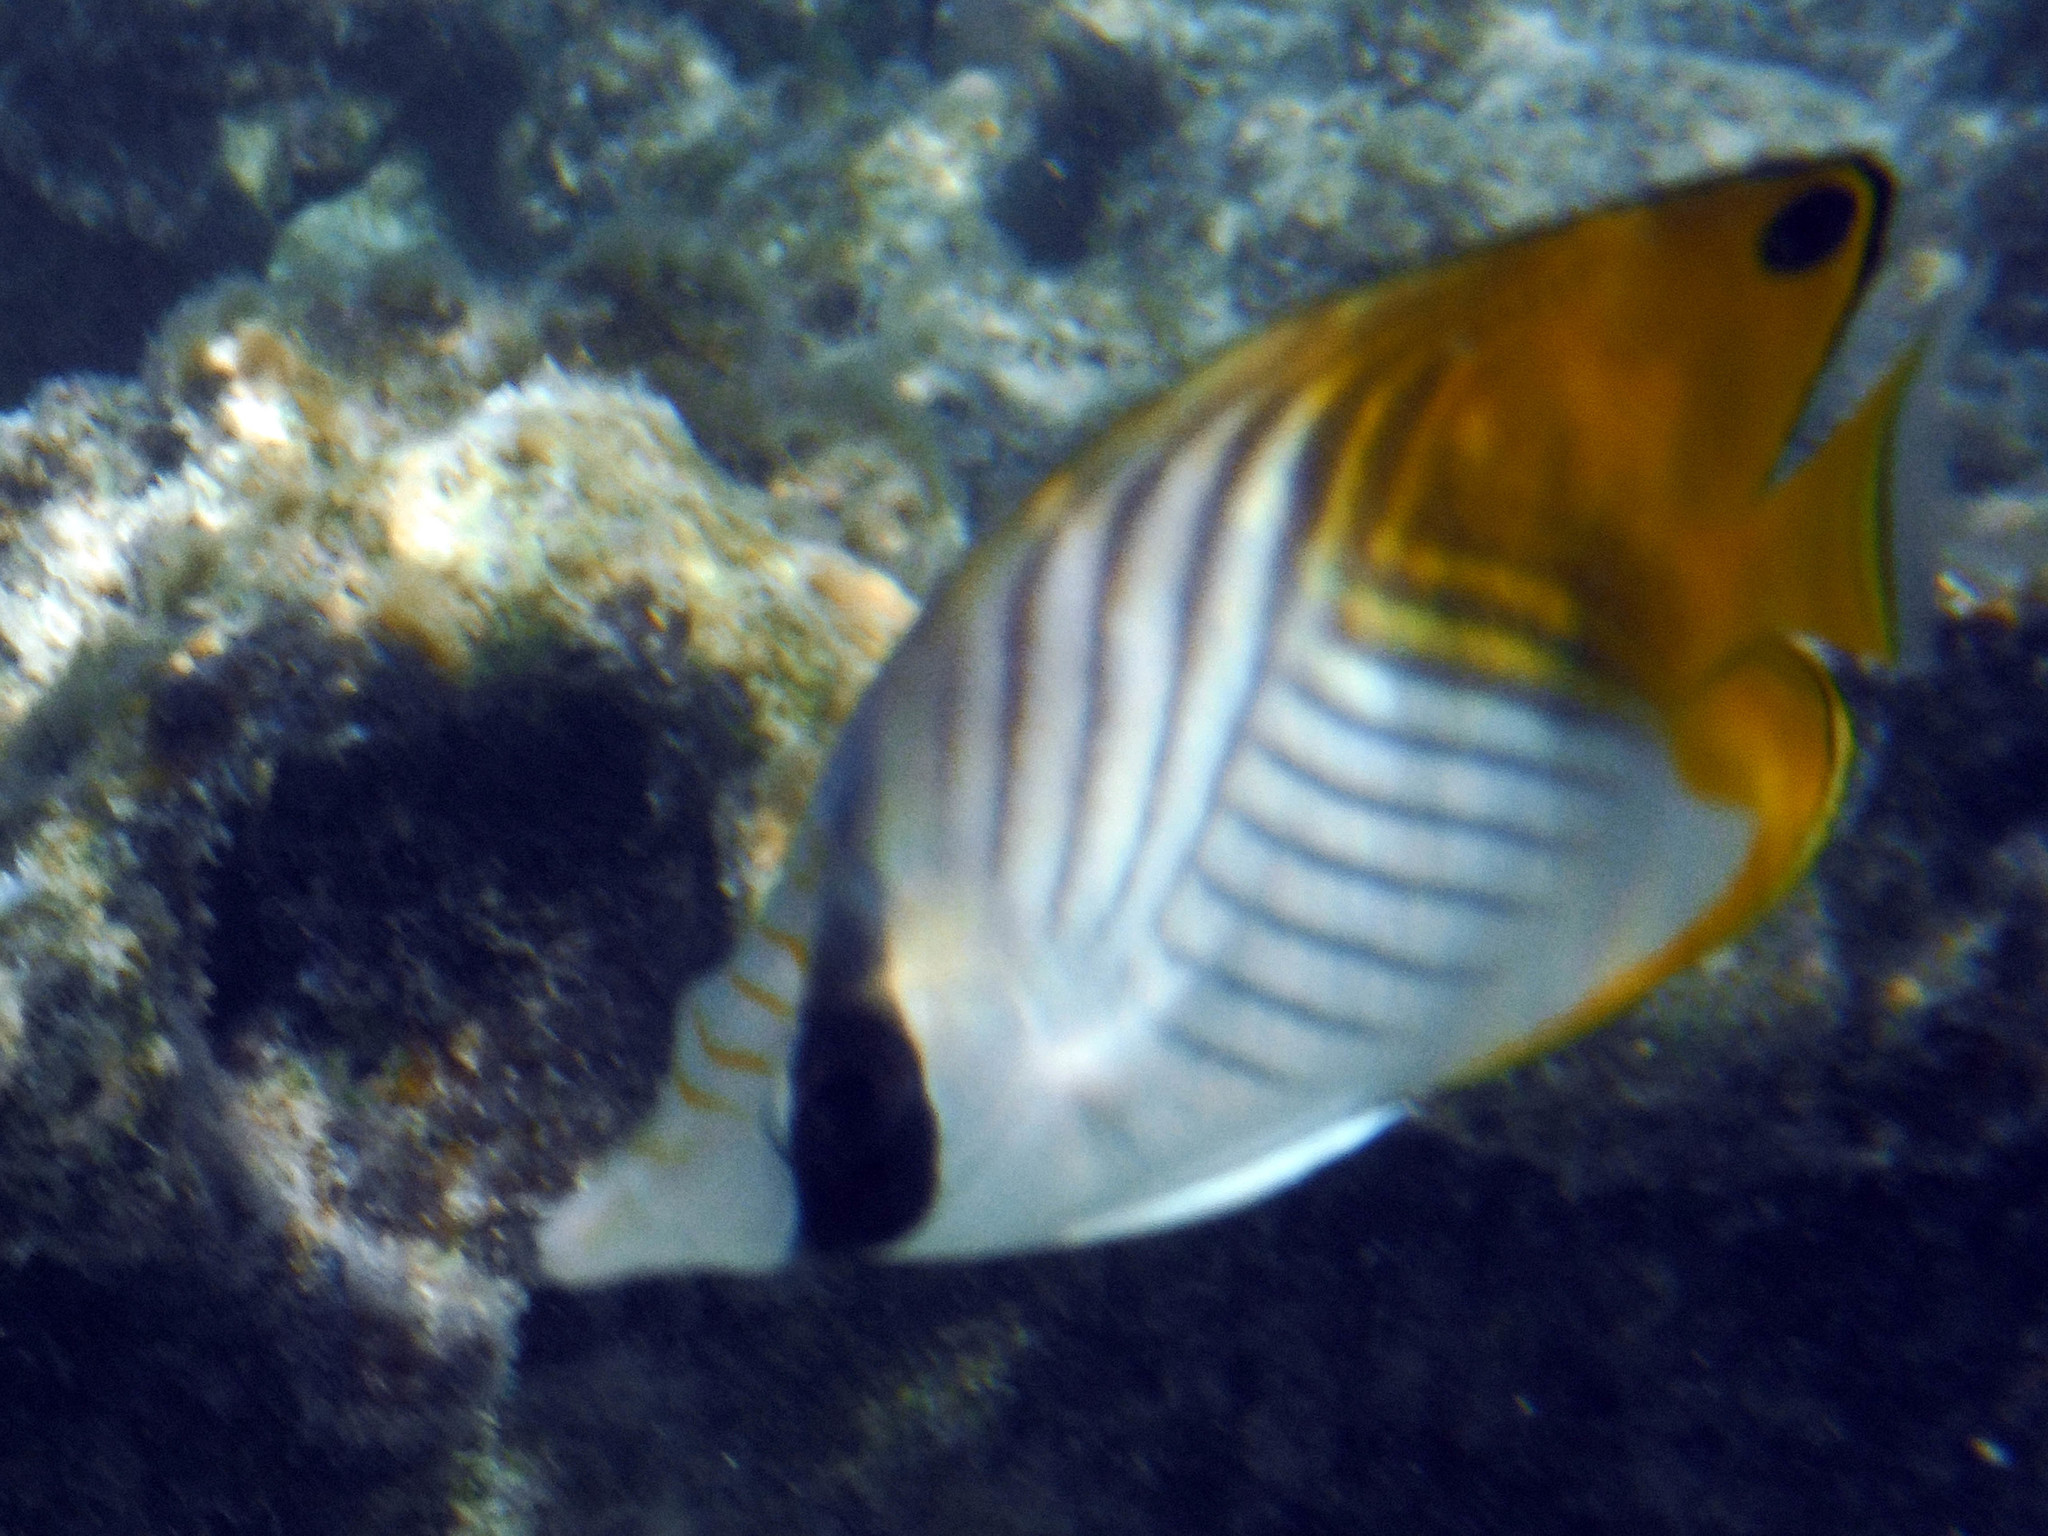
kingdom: Animalia
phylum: Chordata
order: Perciformes
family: Chaetodontidae
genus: Chaetodon
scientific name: Chaetodon auriga
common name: Threadfin butterflyfish
